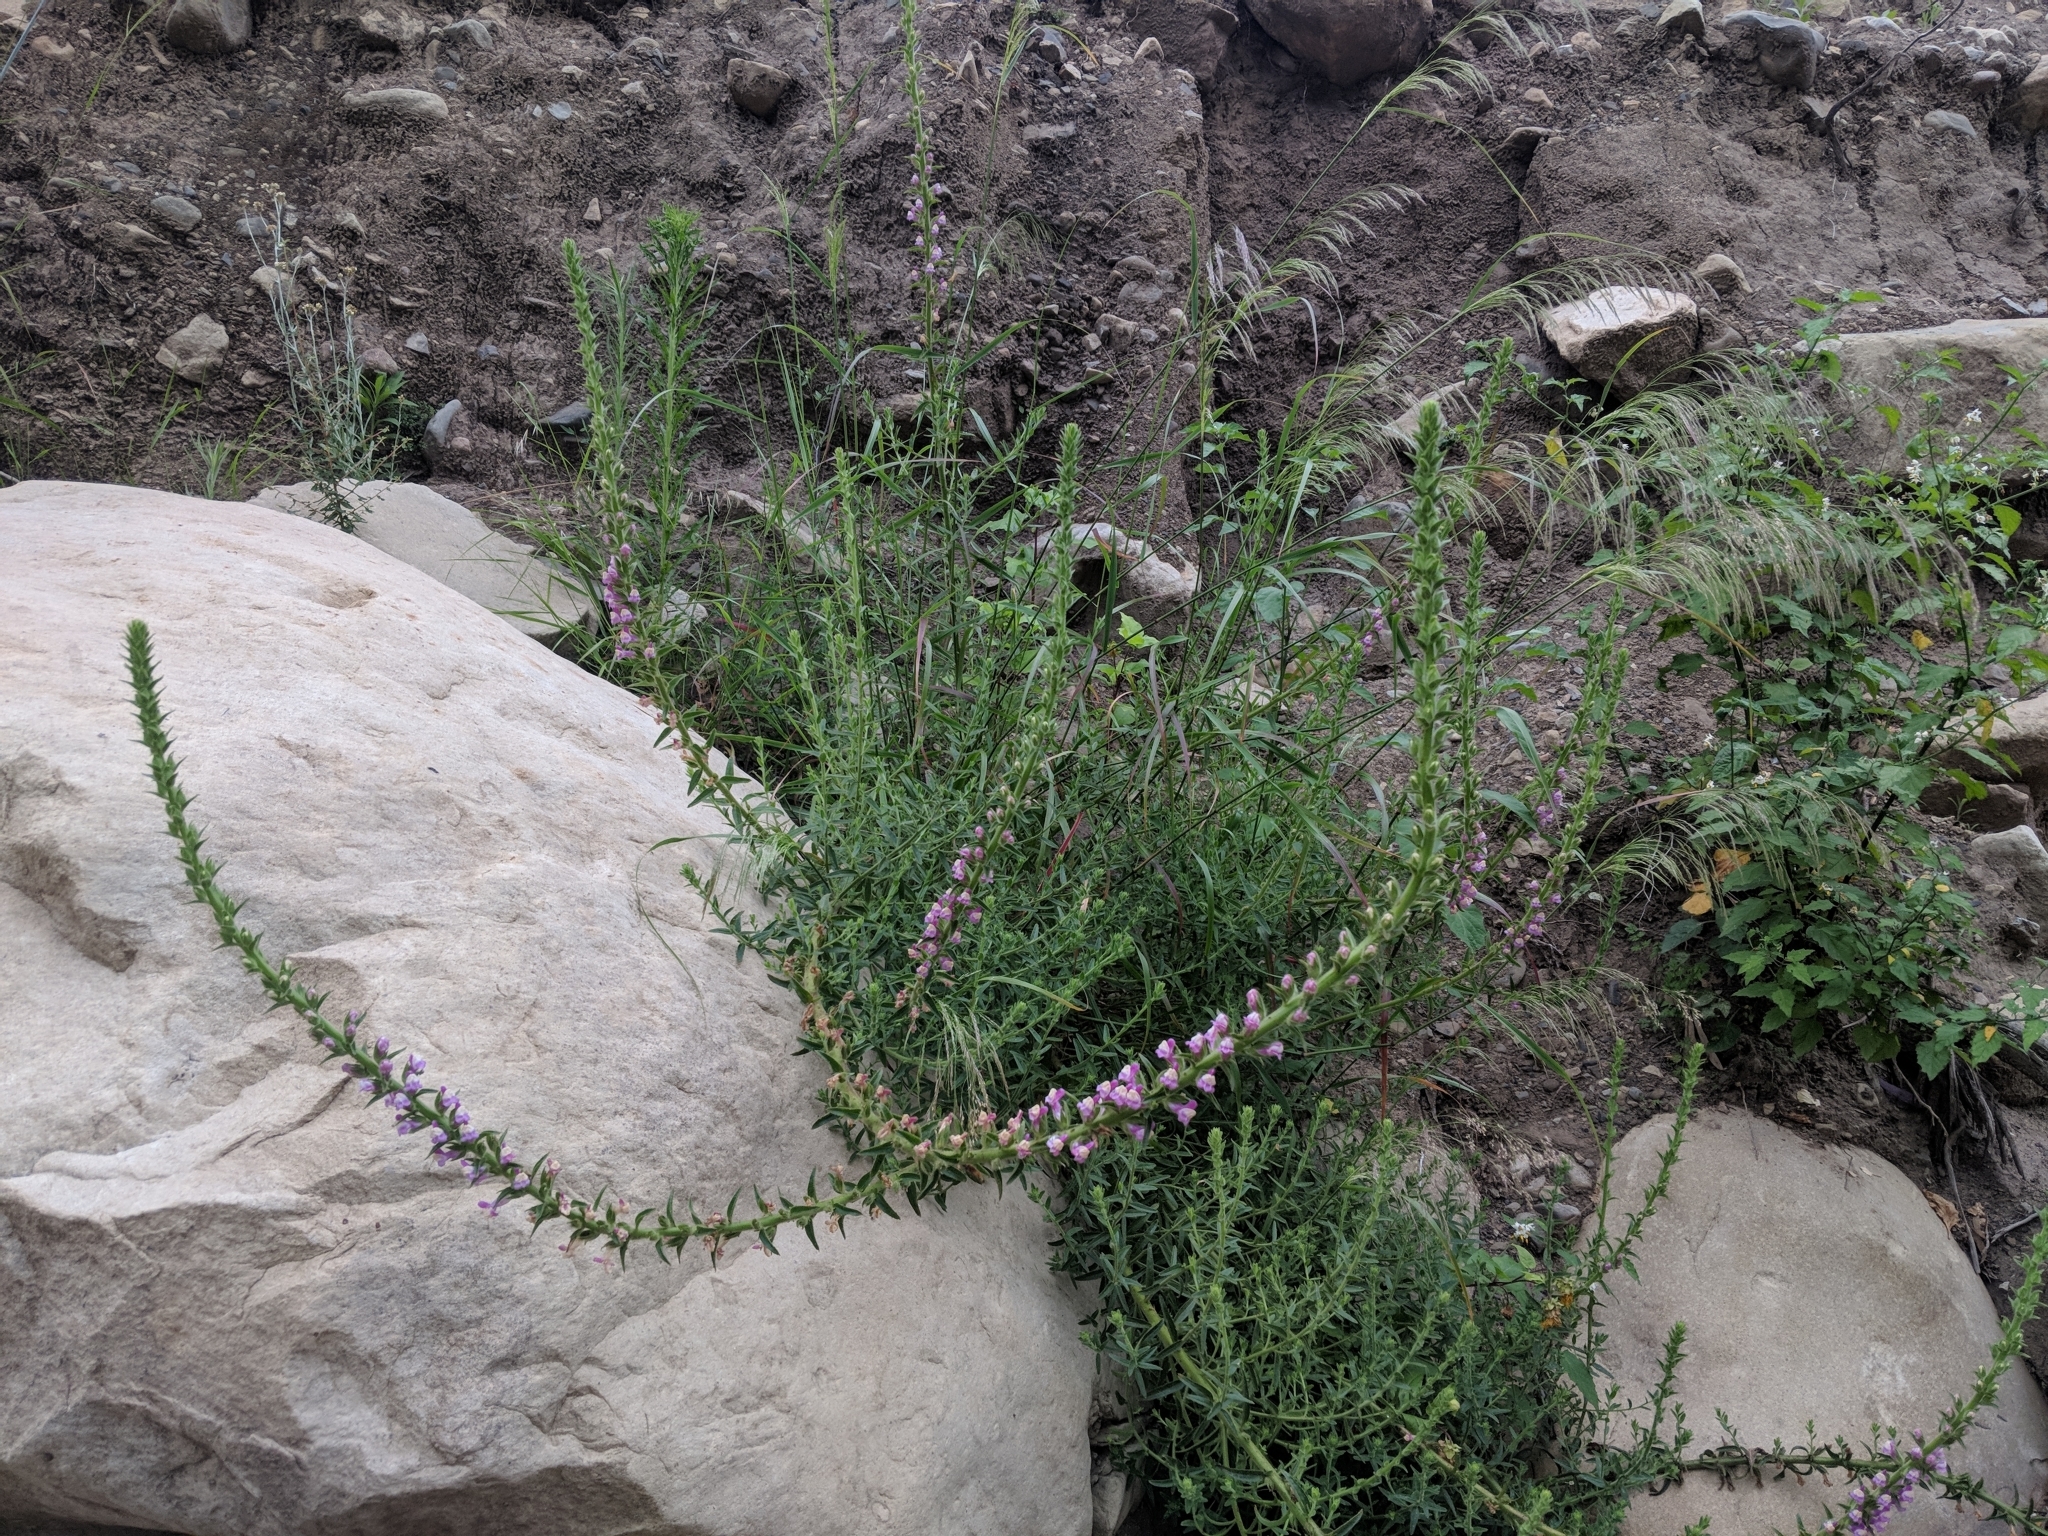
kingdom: Plantae
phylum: Tracheophyta
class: Magnoliopsida
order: Lamiales
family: Plantaginaceae
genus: Sairocarpus
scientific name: Sairocarpus multiflorus
